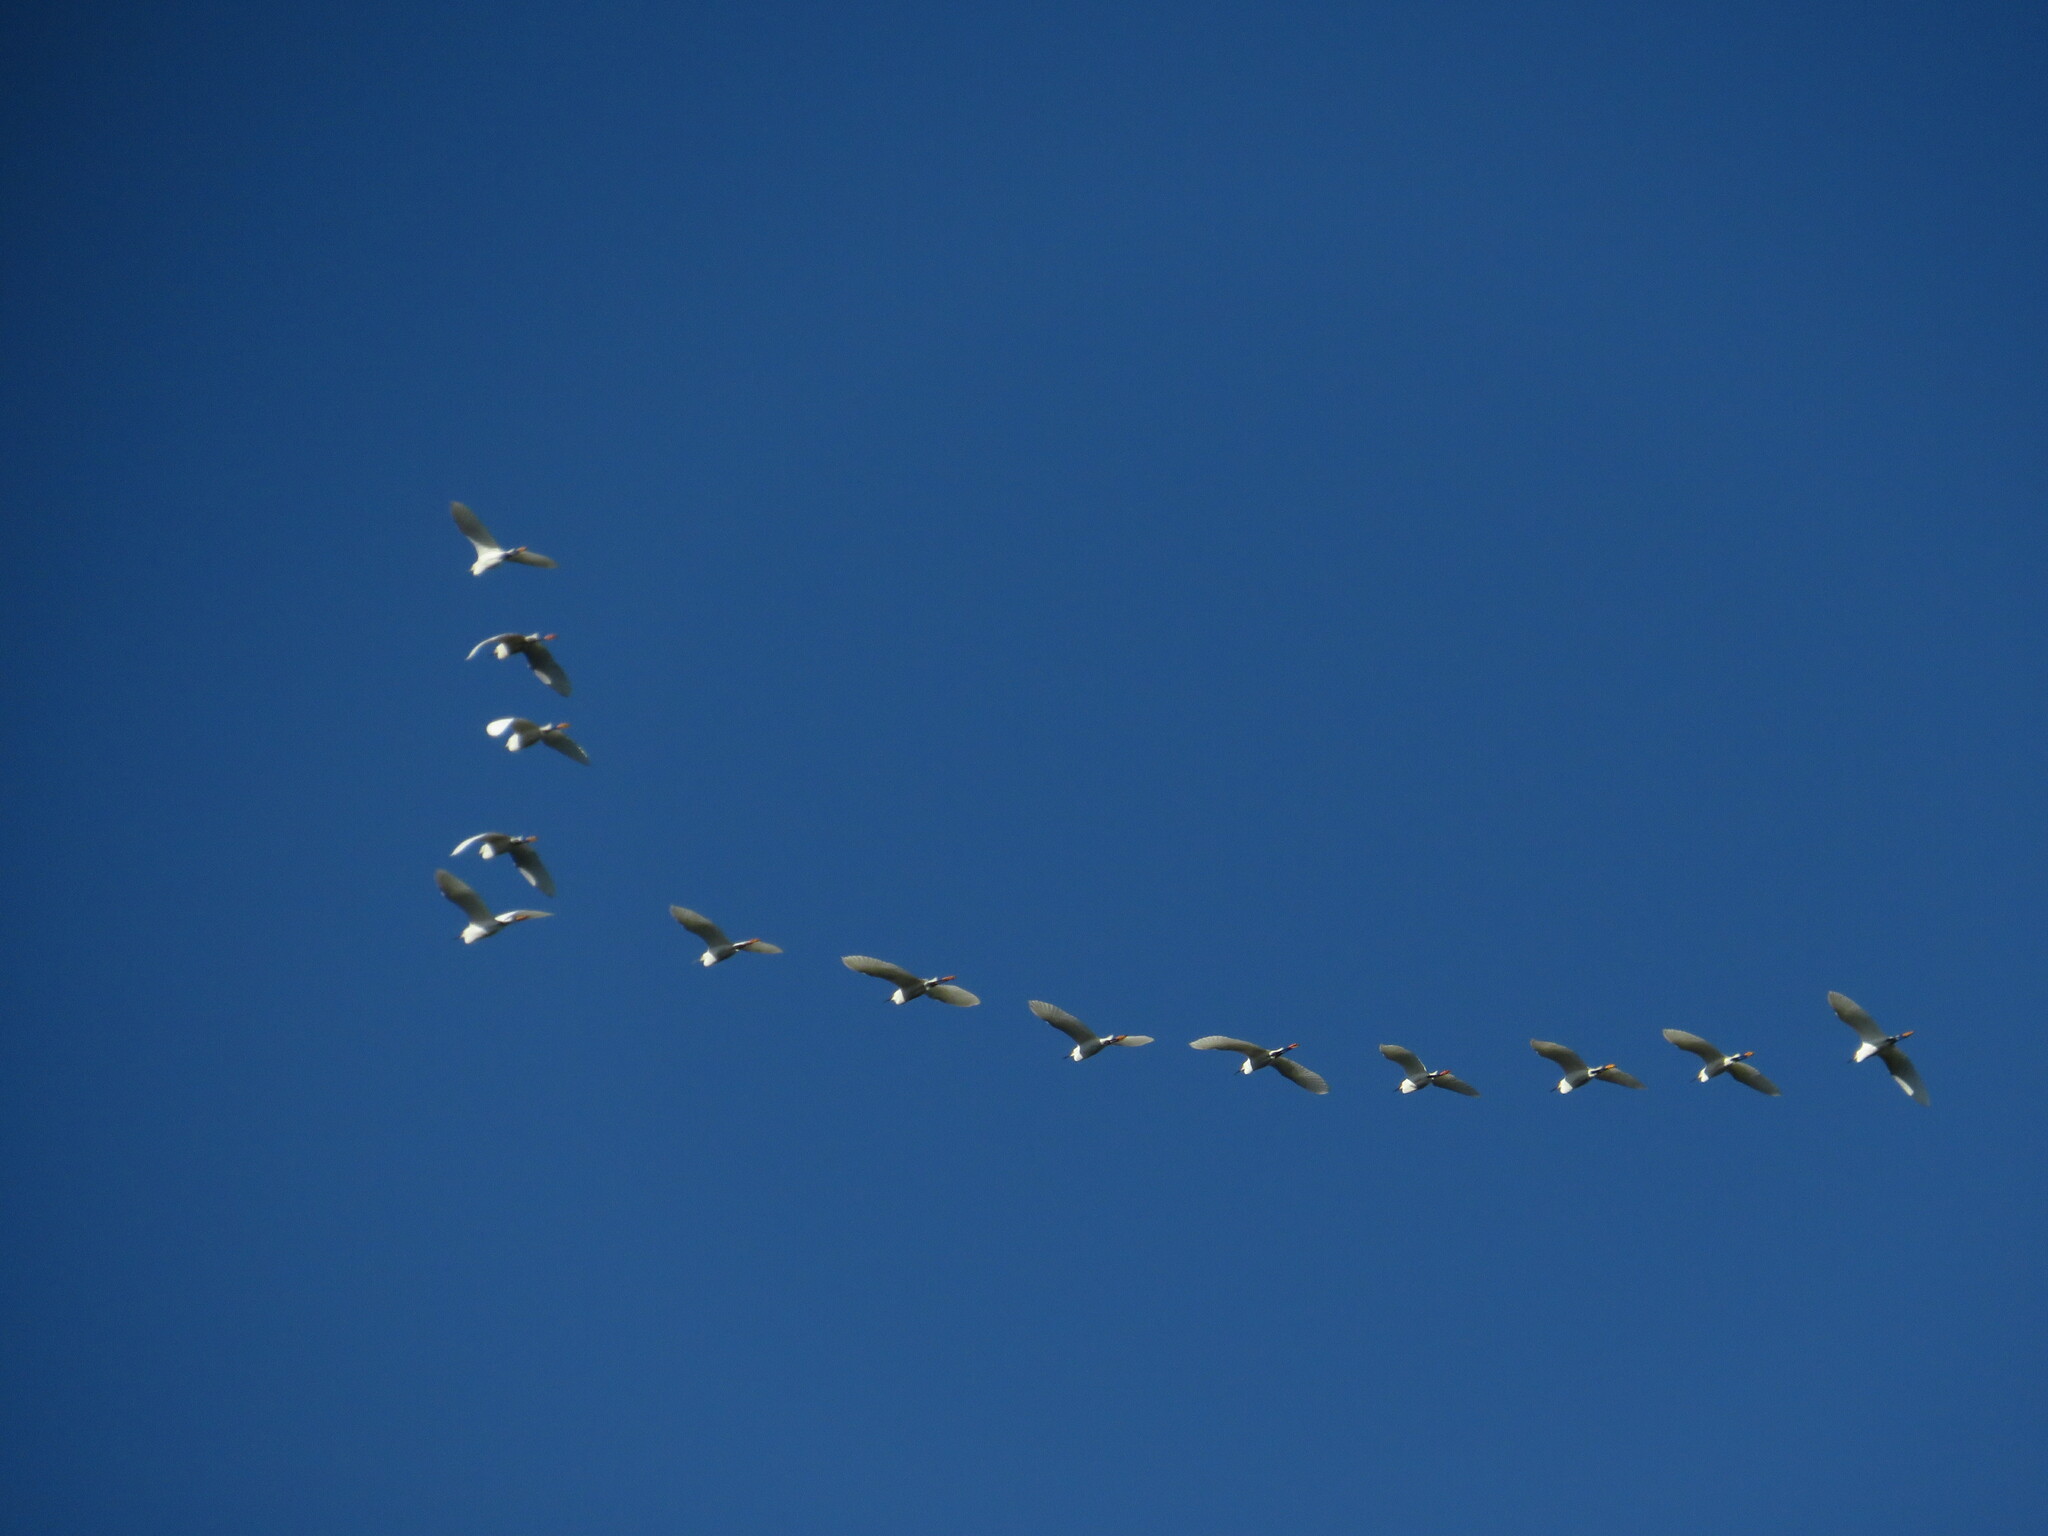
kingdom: Animalia
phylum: Chordata
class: Aves
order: Pelecaniformes
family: Ardeidae
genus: Egretta
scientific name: Egretta thula
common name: Snowy egret
